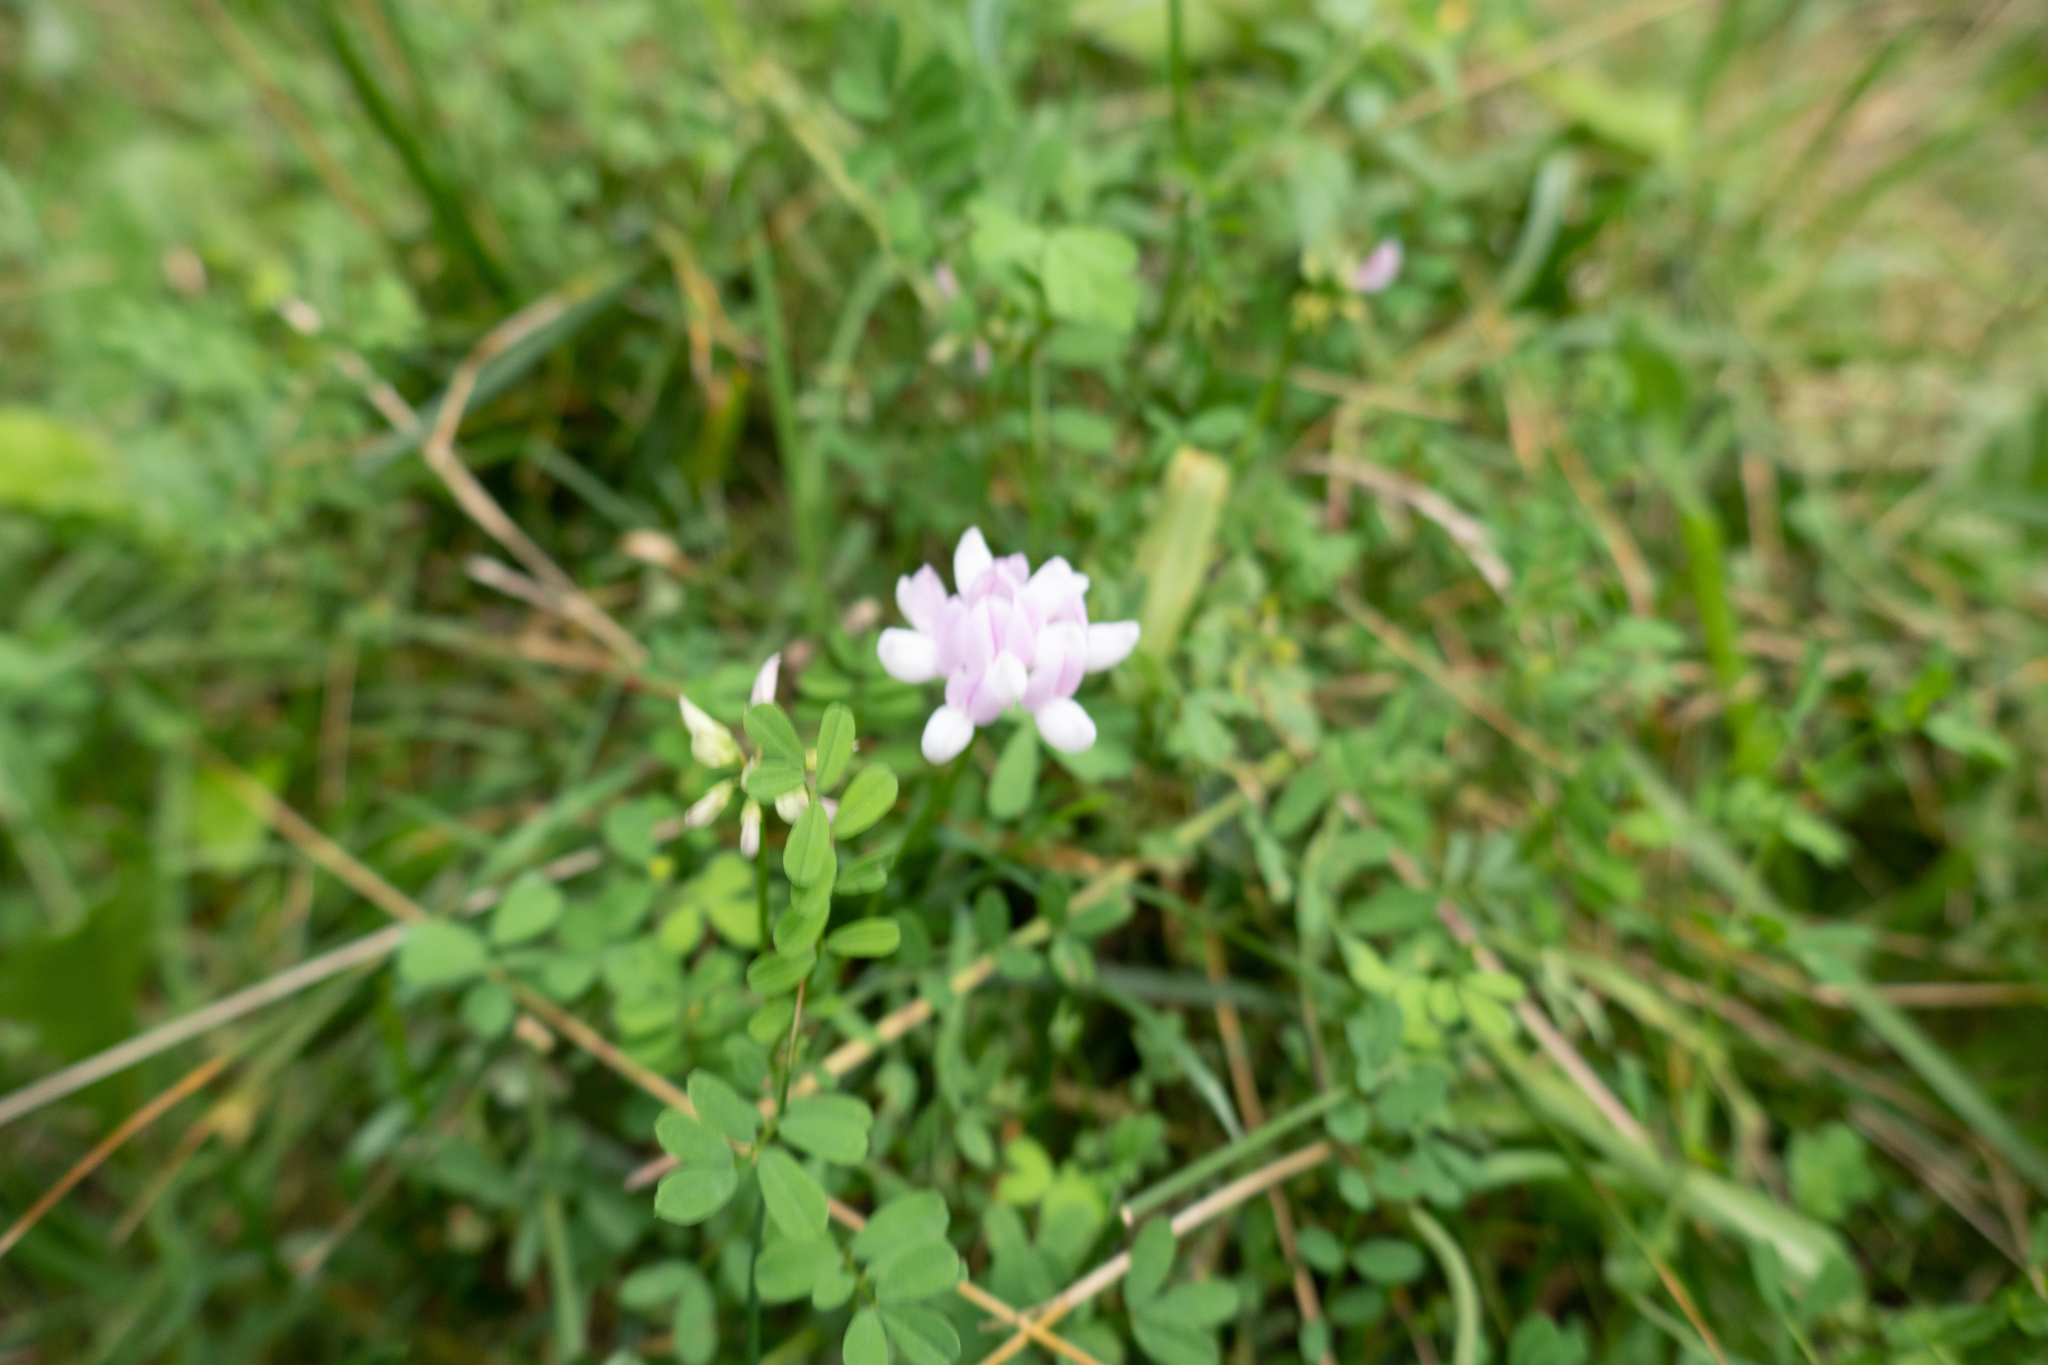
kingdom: Plantae
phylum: Tracheophyta
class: Magnoliopsida
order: Fabales
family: Fabaceae
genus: Coronilla
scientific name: Coronilla varia
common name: Crownvetch
